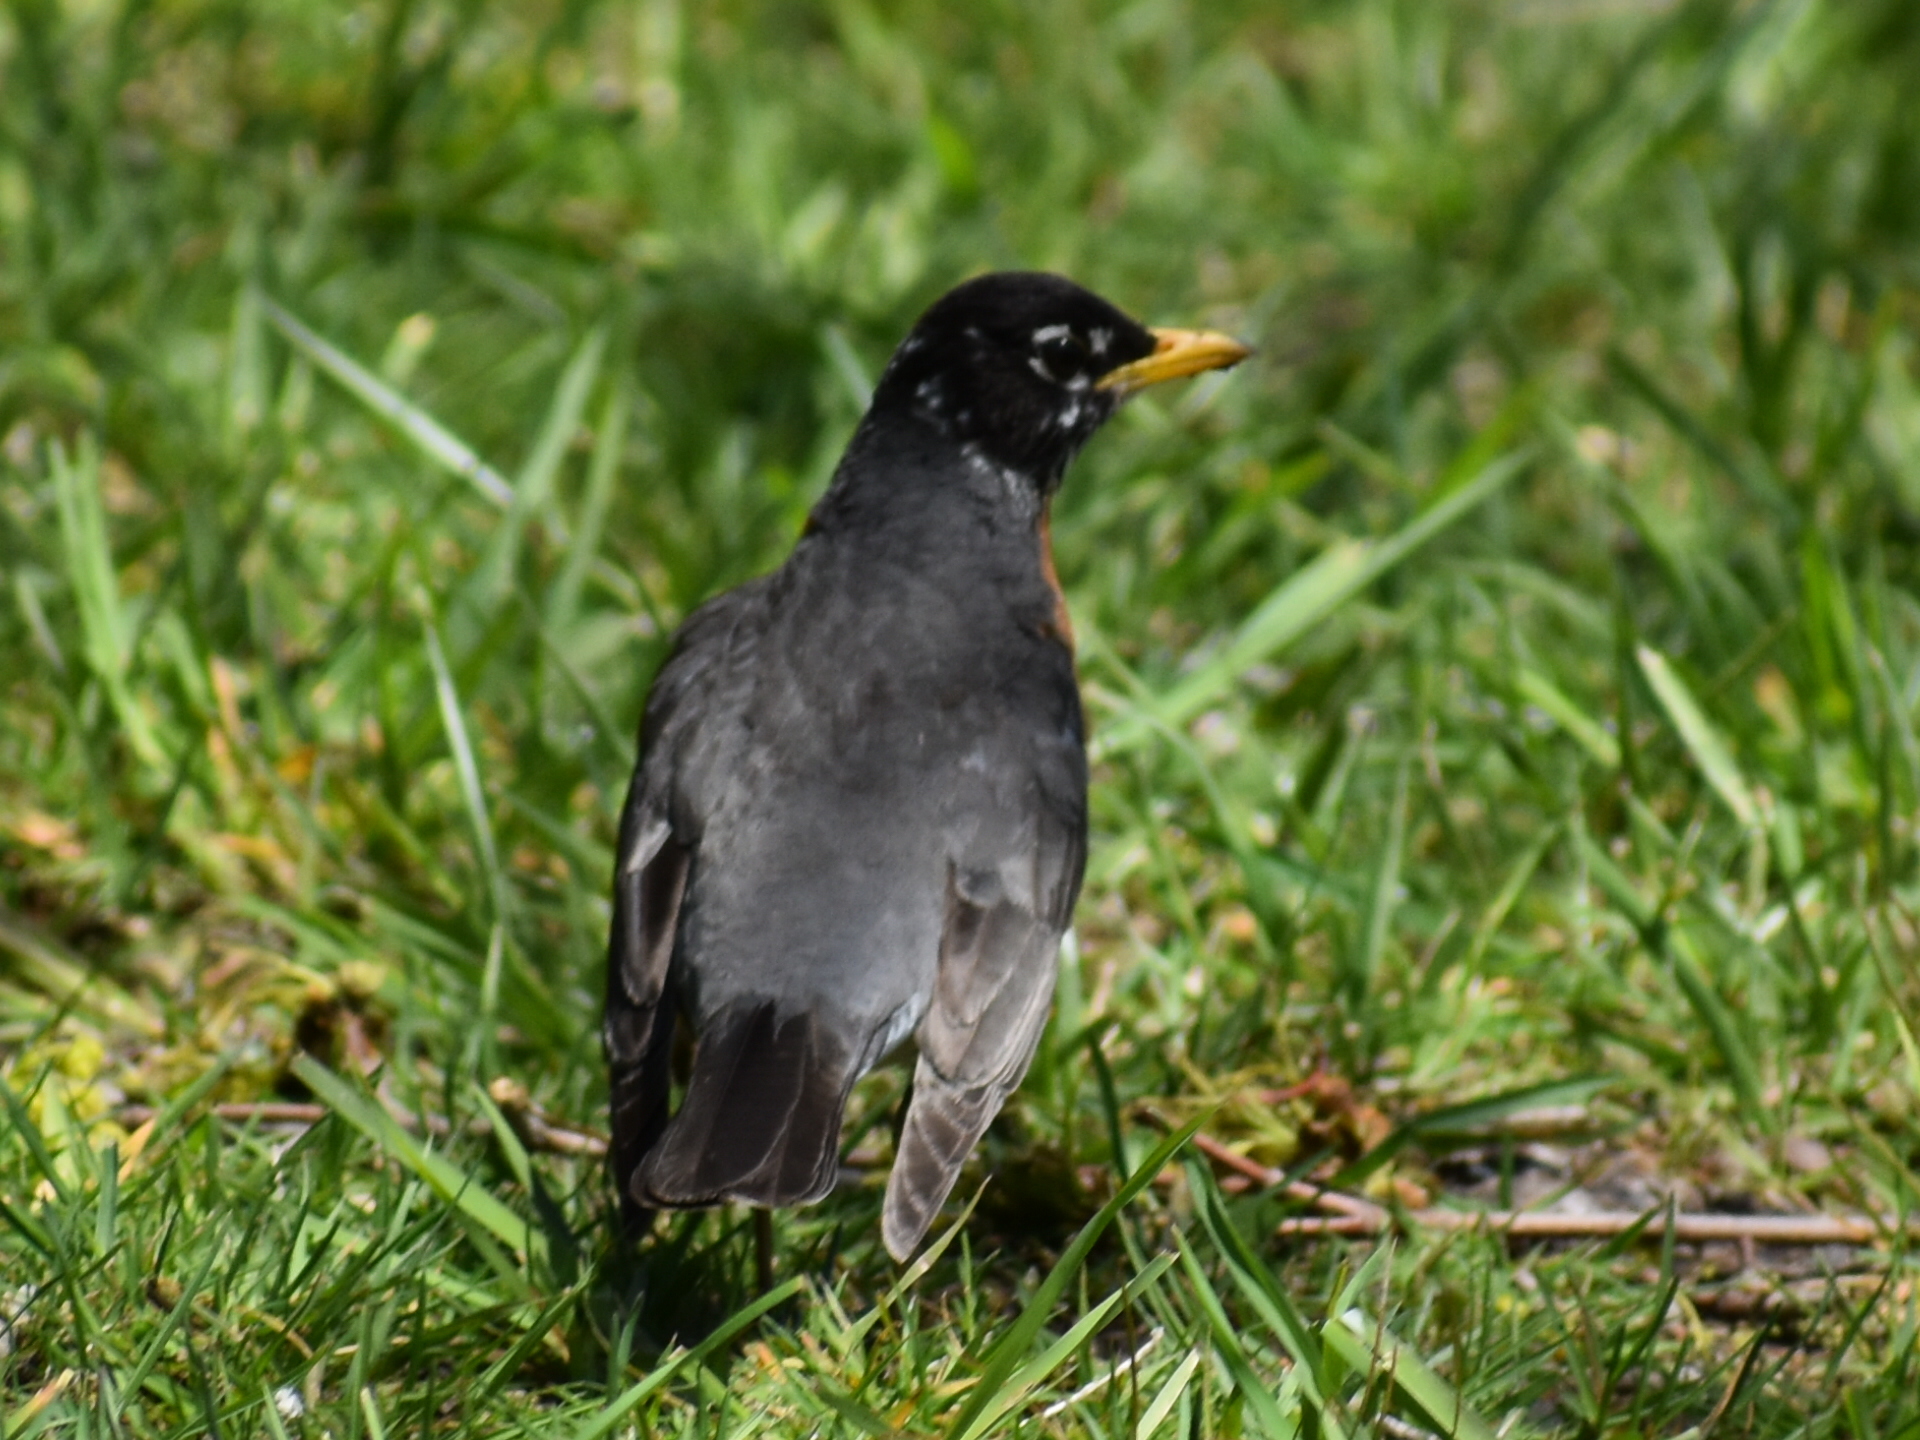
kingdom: Animalia
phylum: Chordata
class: Aves
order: Passeriformes
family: Turdidae
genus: Turdus
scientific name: Turdus migratorius
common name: American robin
